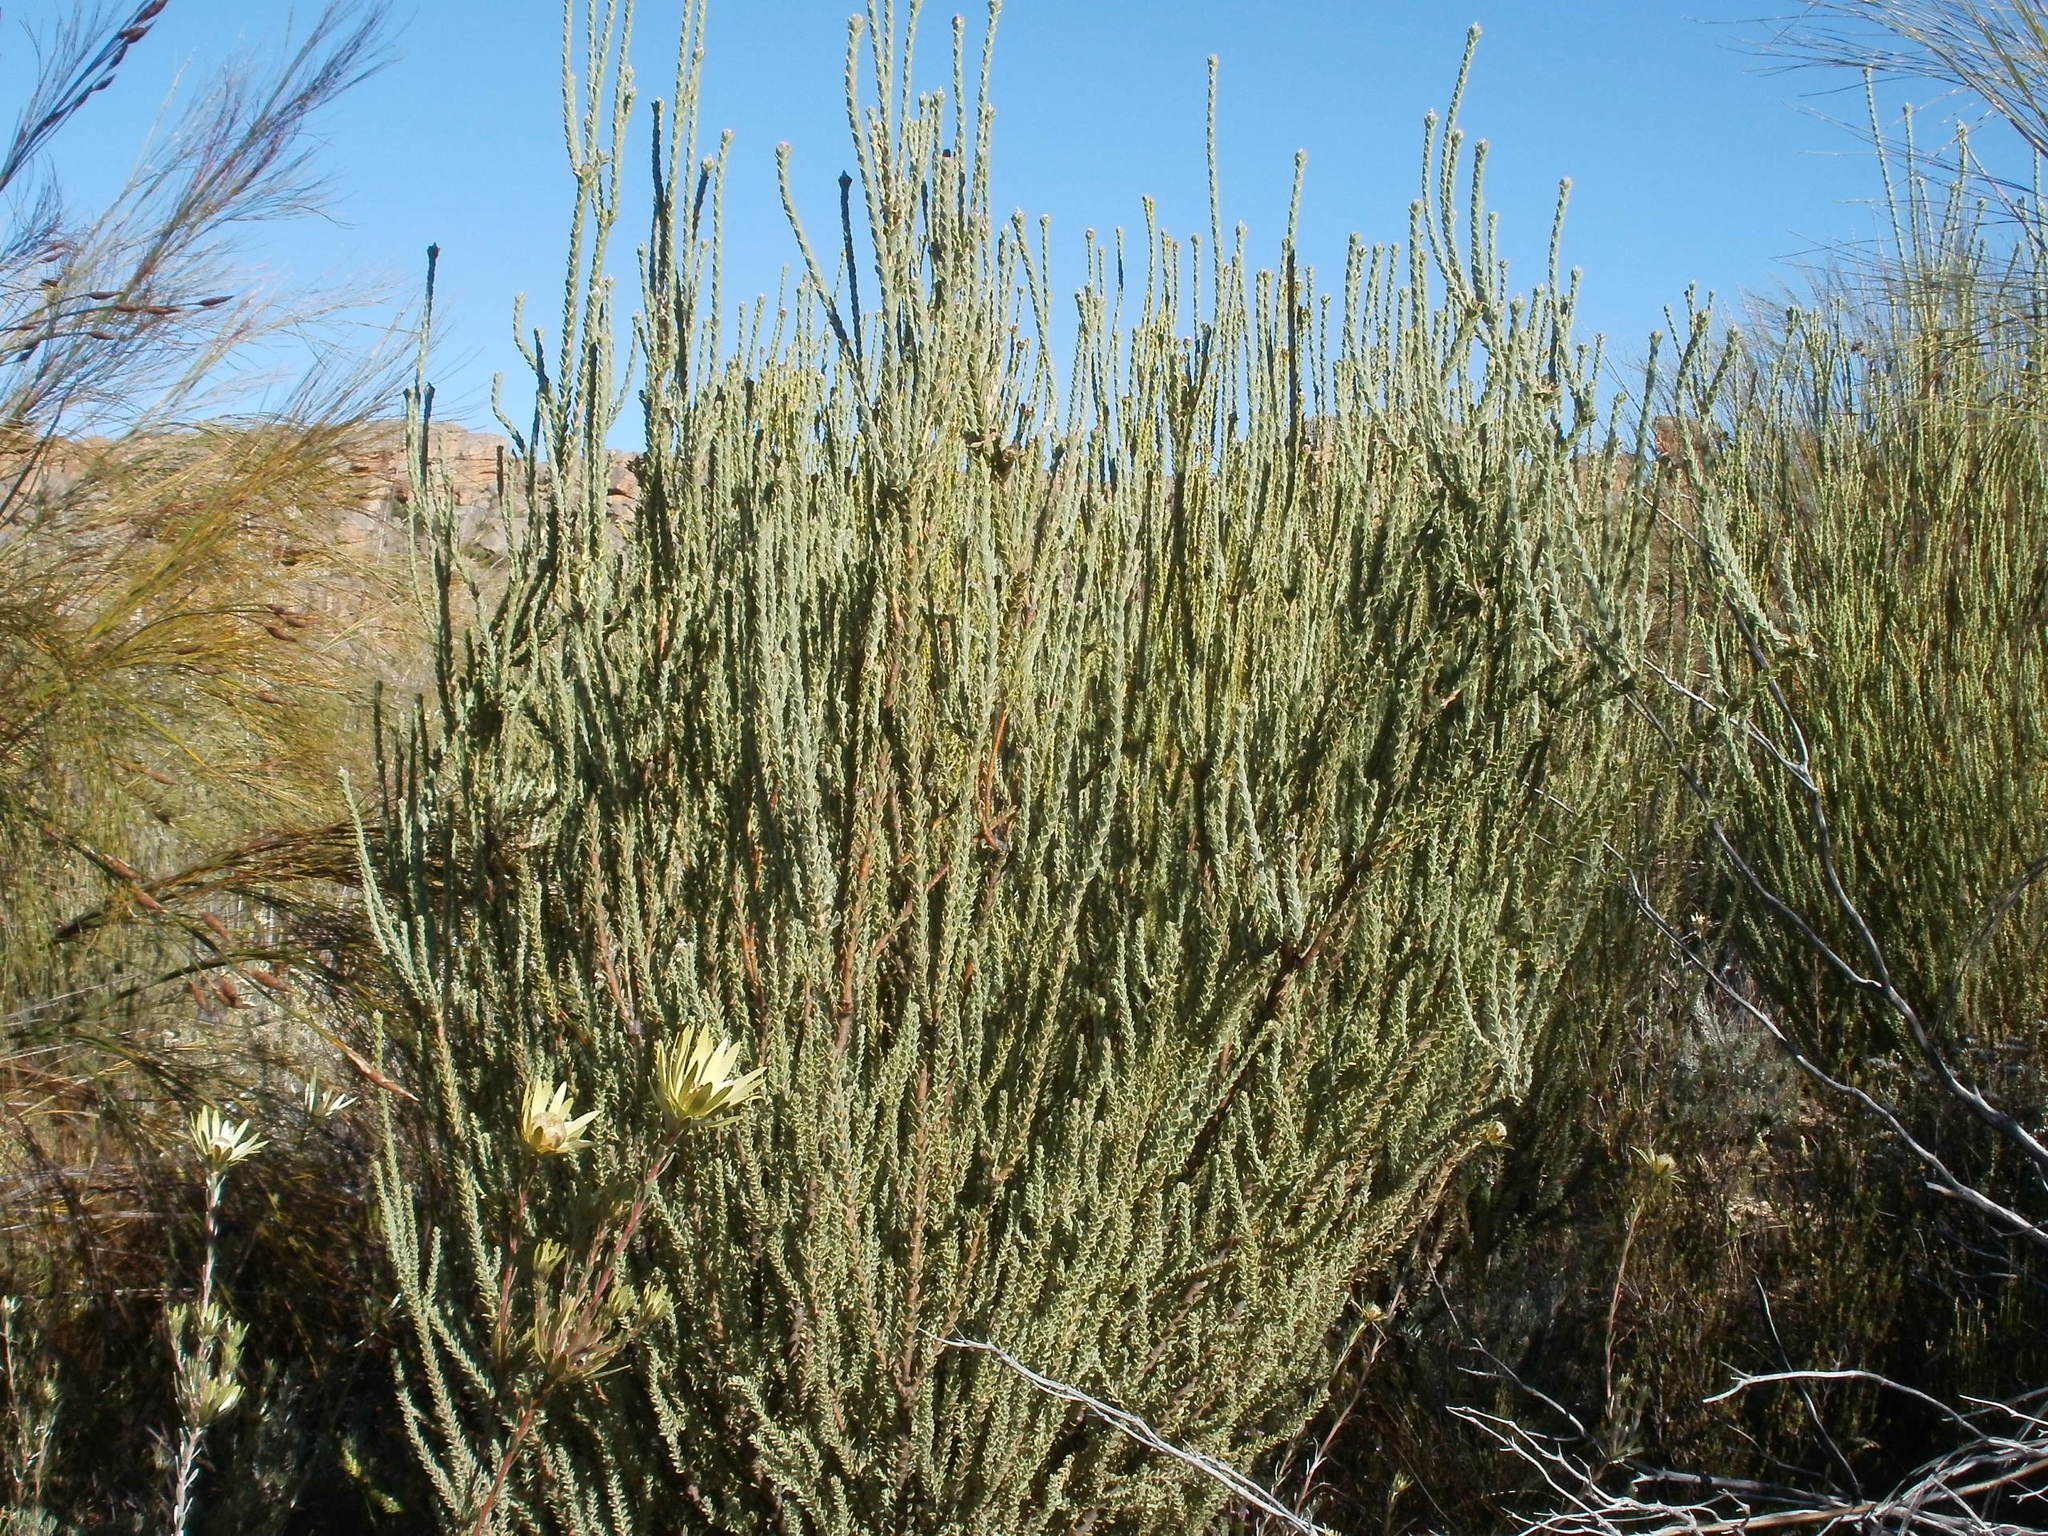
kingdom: Plantae
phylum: Tracheophyta
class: Magnoliopsida
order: Proteales
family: Proteaceae
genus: Leucadendron
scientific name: Leucadendron dubium
